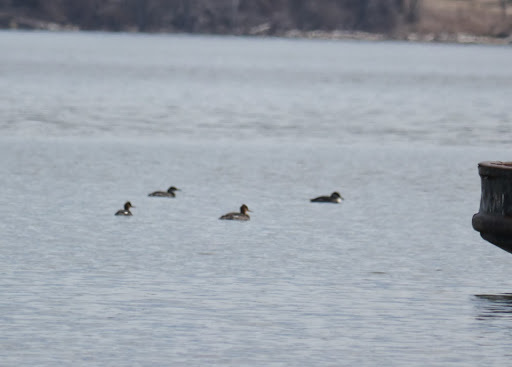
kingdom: Animalia
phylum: Chordata
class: Aves
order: Anseriformes
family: Anatidae
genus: Mergus
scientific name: Mergus serrator
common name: Red-breasted merganser
